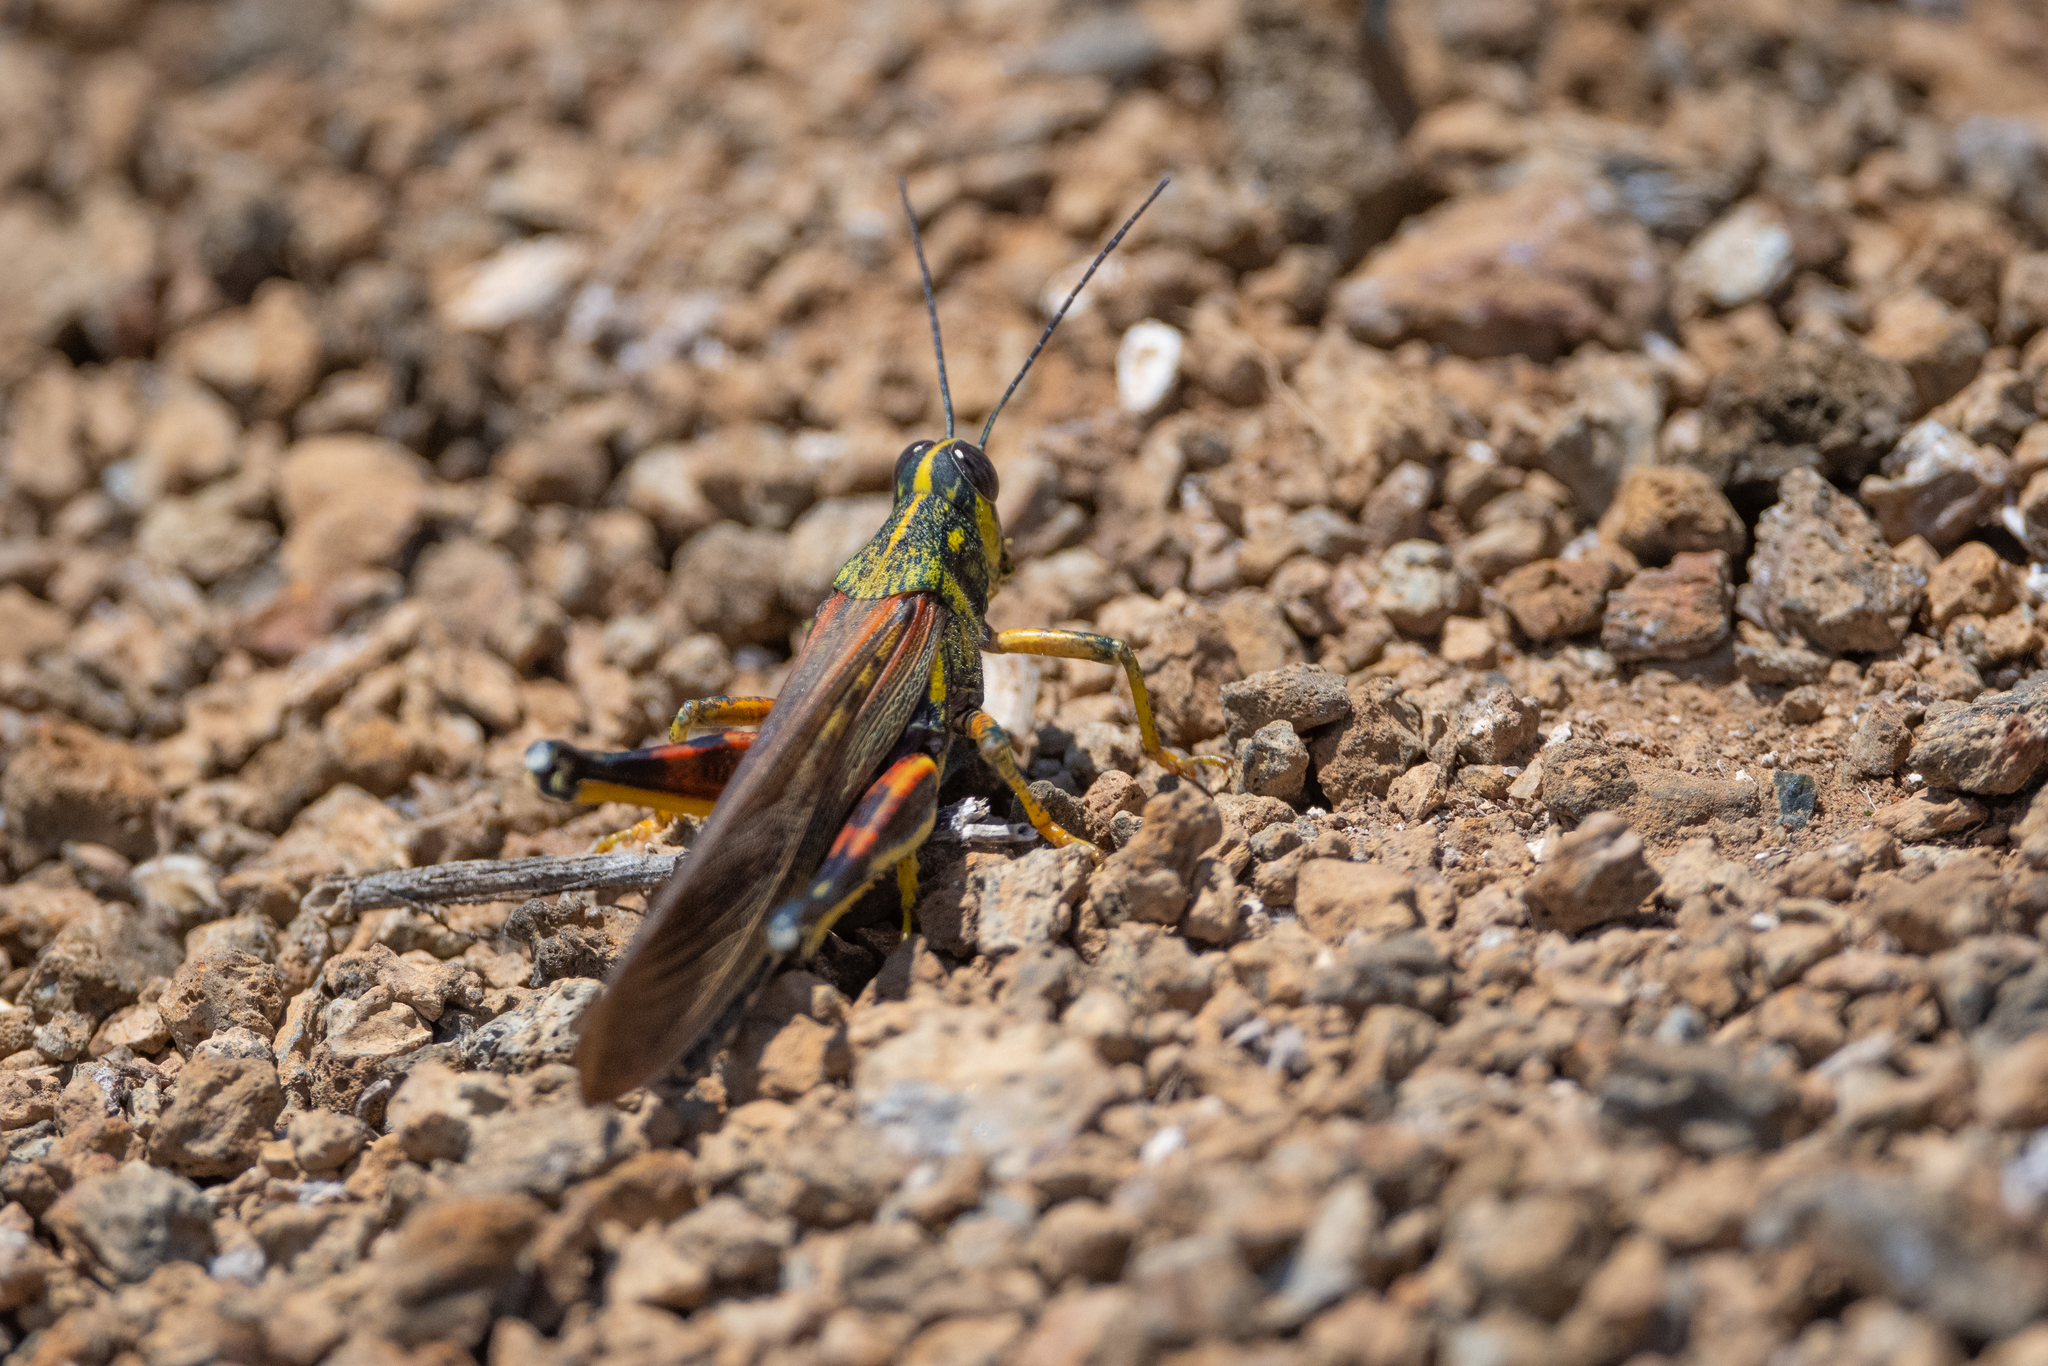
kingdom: Animalia
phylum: Arthropoda
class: Insecta
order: Orthoptera
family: Acrididae
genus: Schistocerca
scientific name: Schistocerca melanocera
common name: Large painted locust
